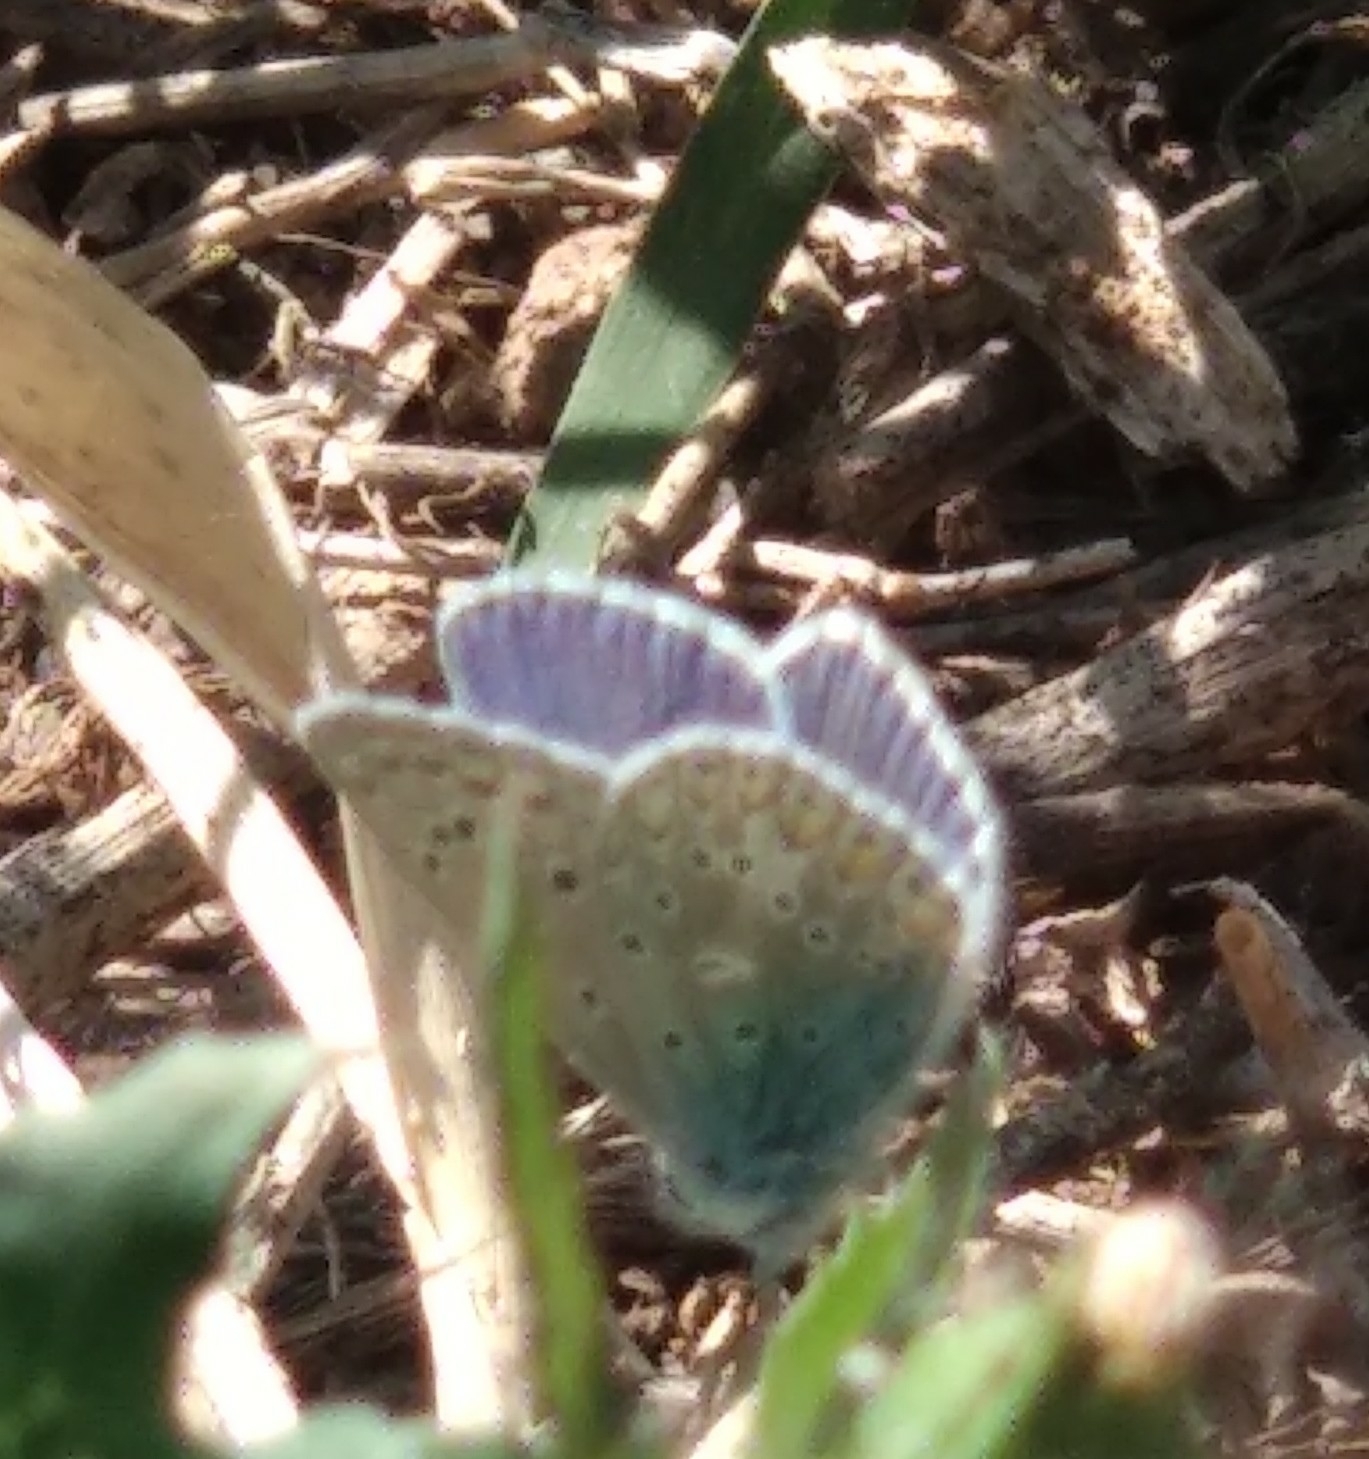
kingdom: Animalia
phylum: Arthropoda
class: Insecta
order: Lepidoptera
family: Lycaenidae
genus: Polyommatus
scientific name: Polyommatus icarus
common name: Common blue
